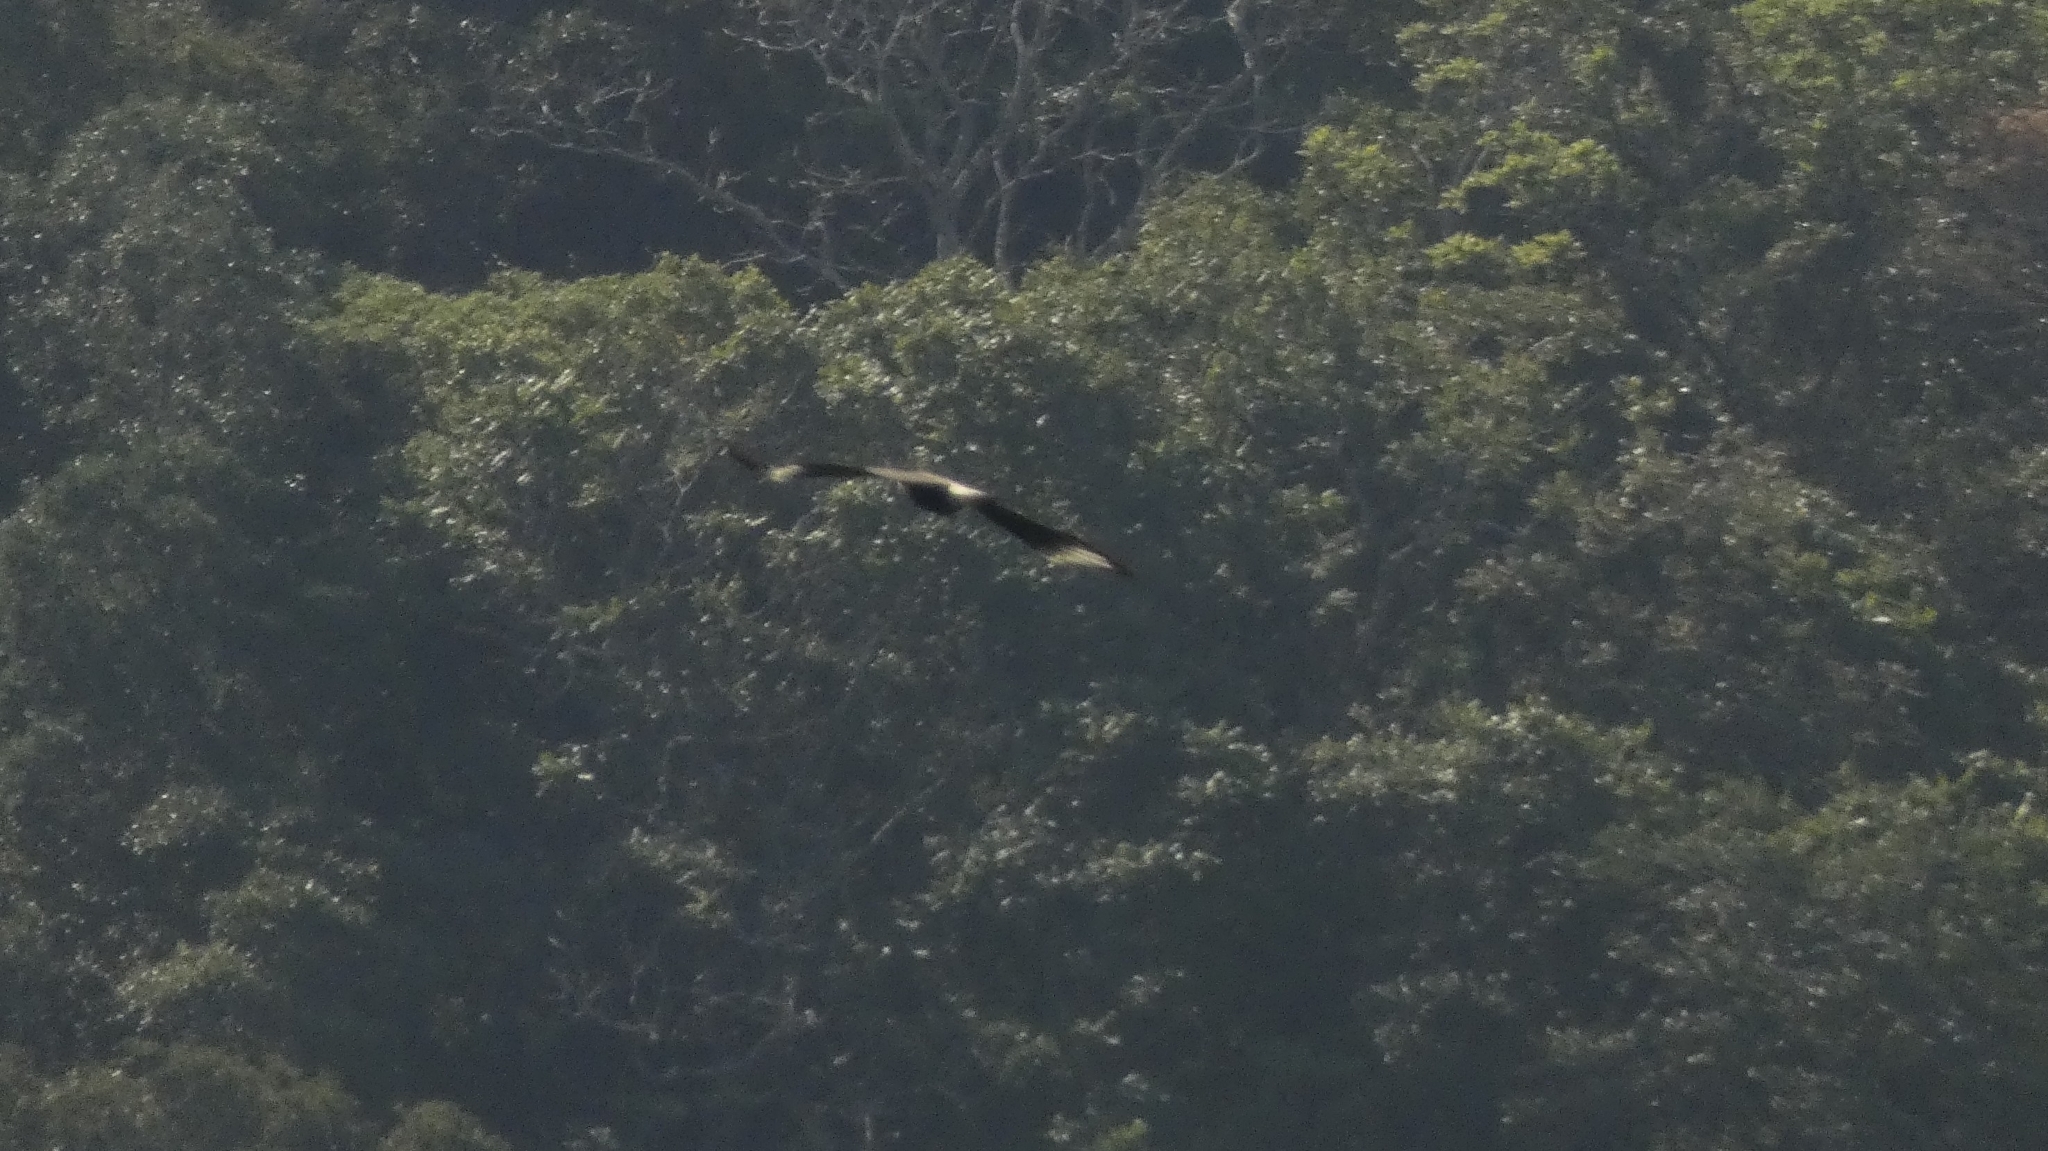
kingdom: Animalia
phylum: Chordata
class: Aves
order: Falconiformes
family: Falconidae
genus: Caracara
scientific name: Caracara plancus
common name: Southern caracara
